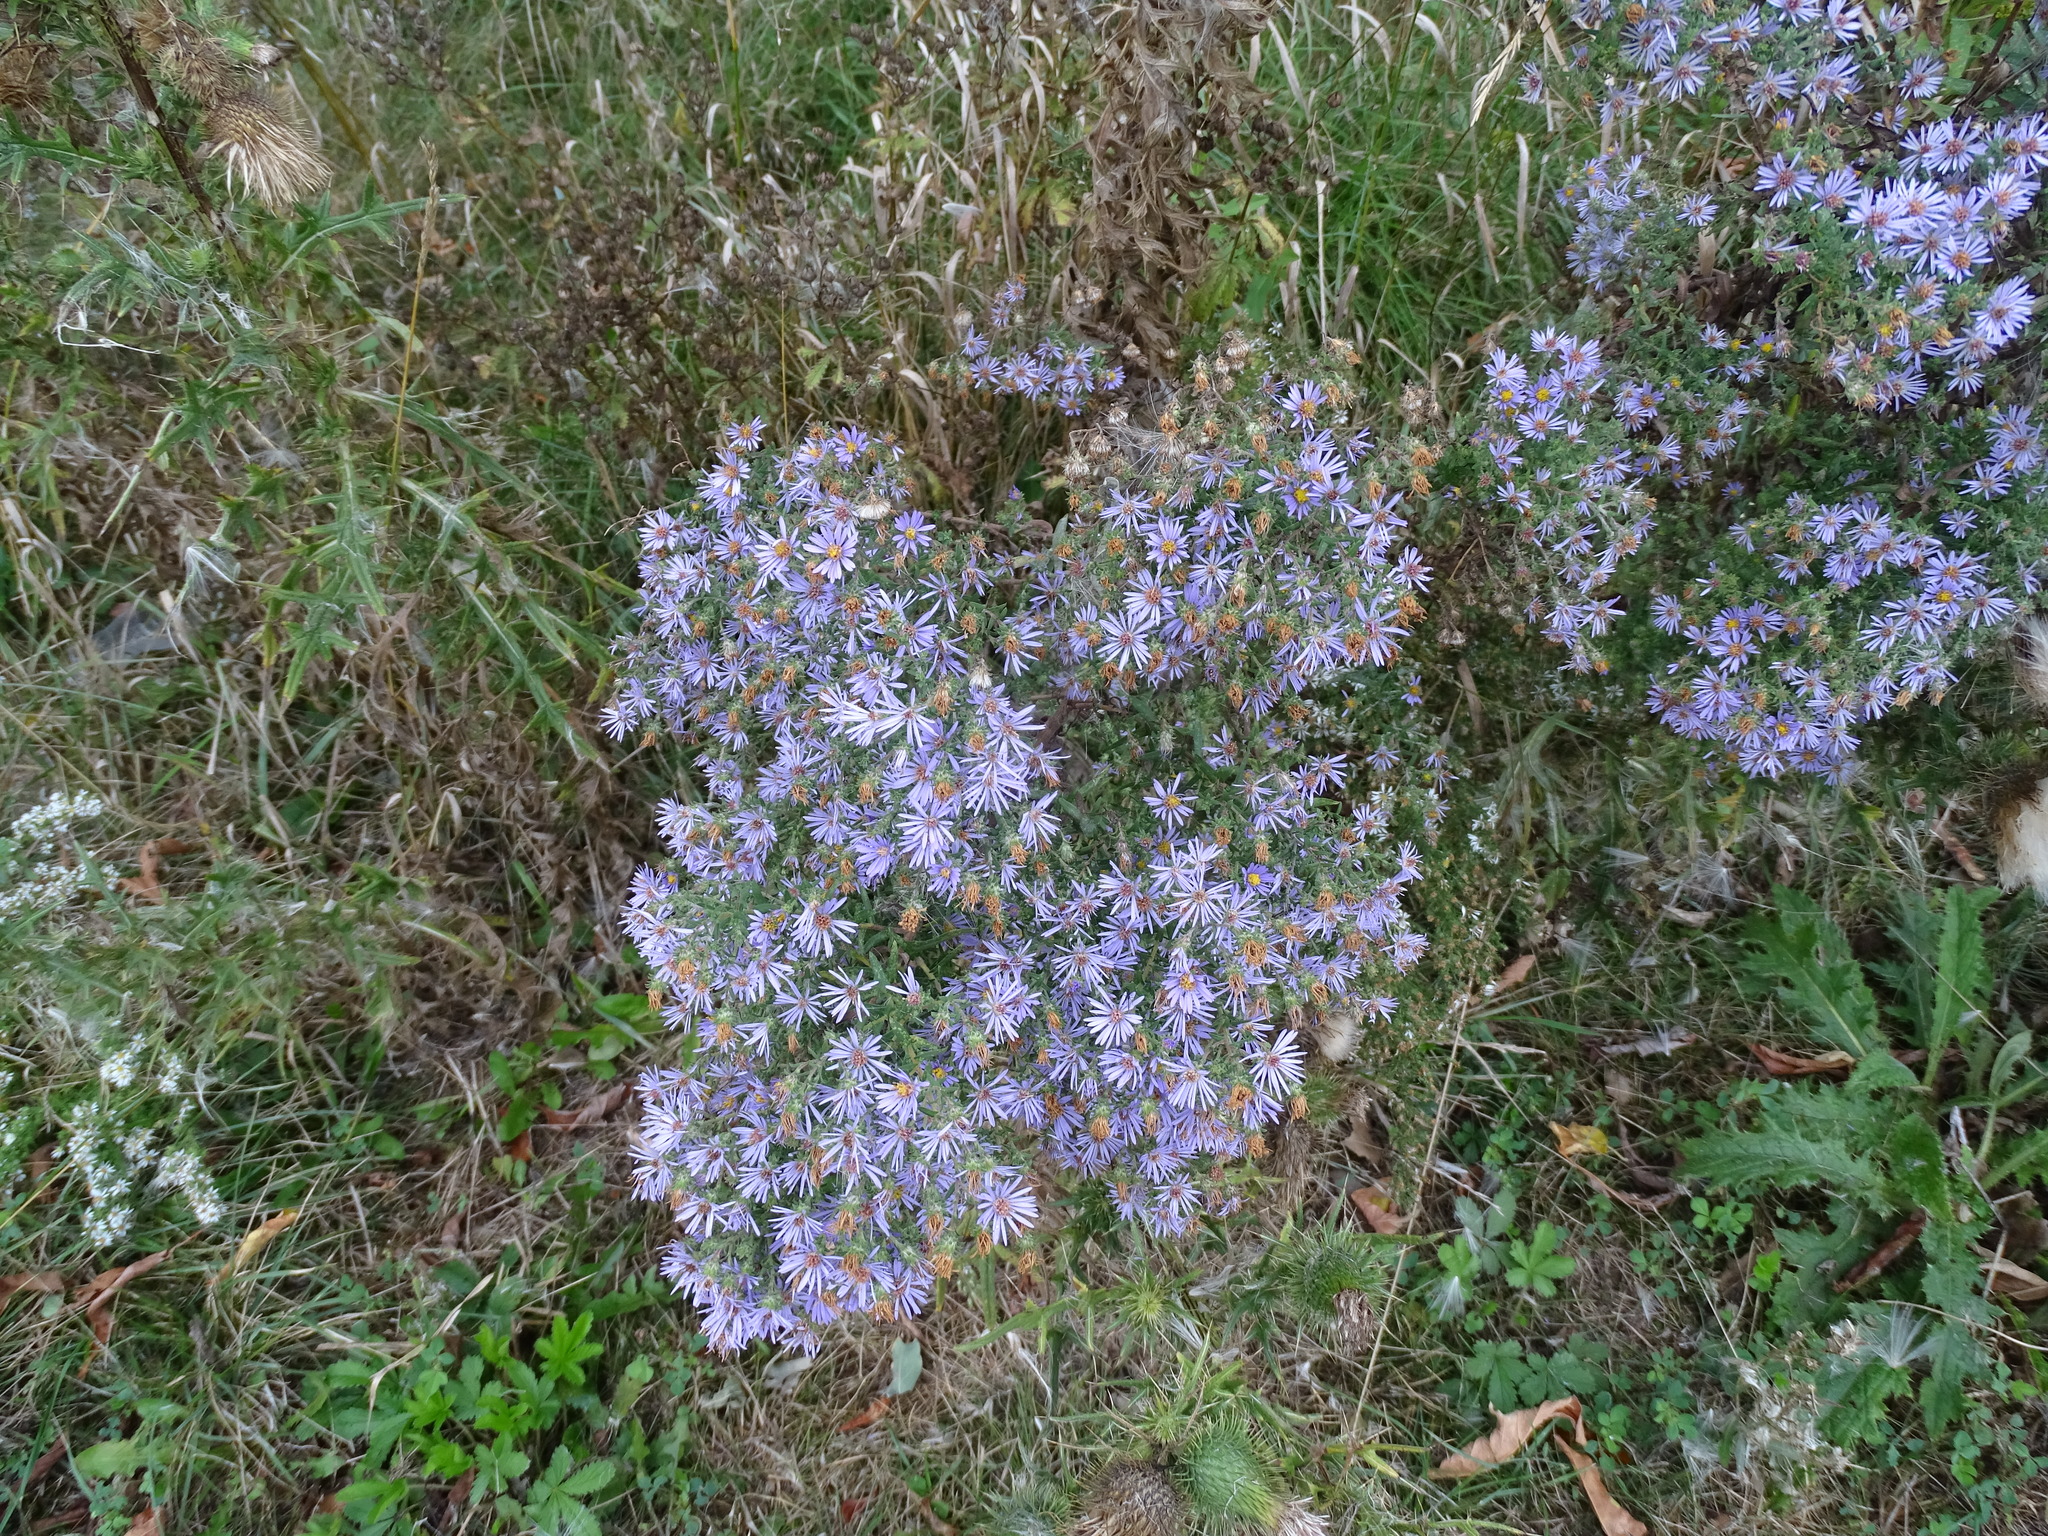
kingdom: Plantae
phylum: Tracheophyta
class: Magnoliopsida
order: Asterales
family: Asteraceae
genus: Symphyotrichum
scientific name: Symphyotrichum amethystinum
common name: Amethyst aster
